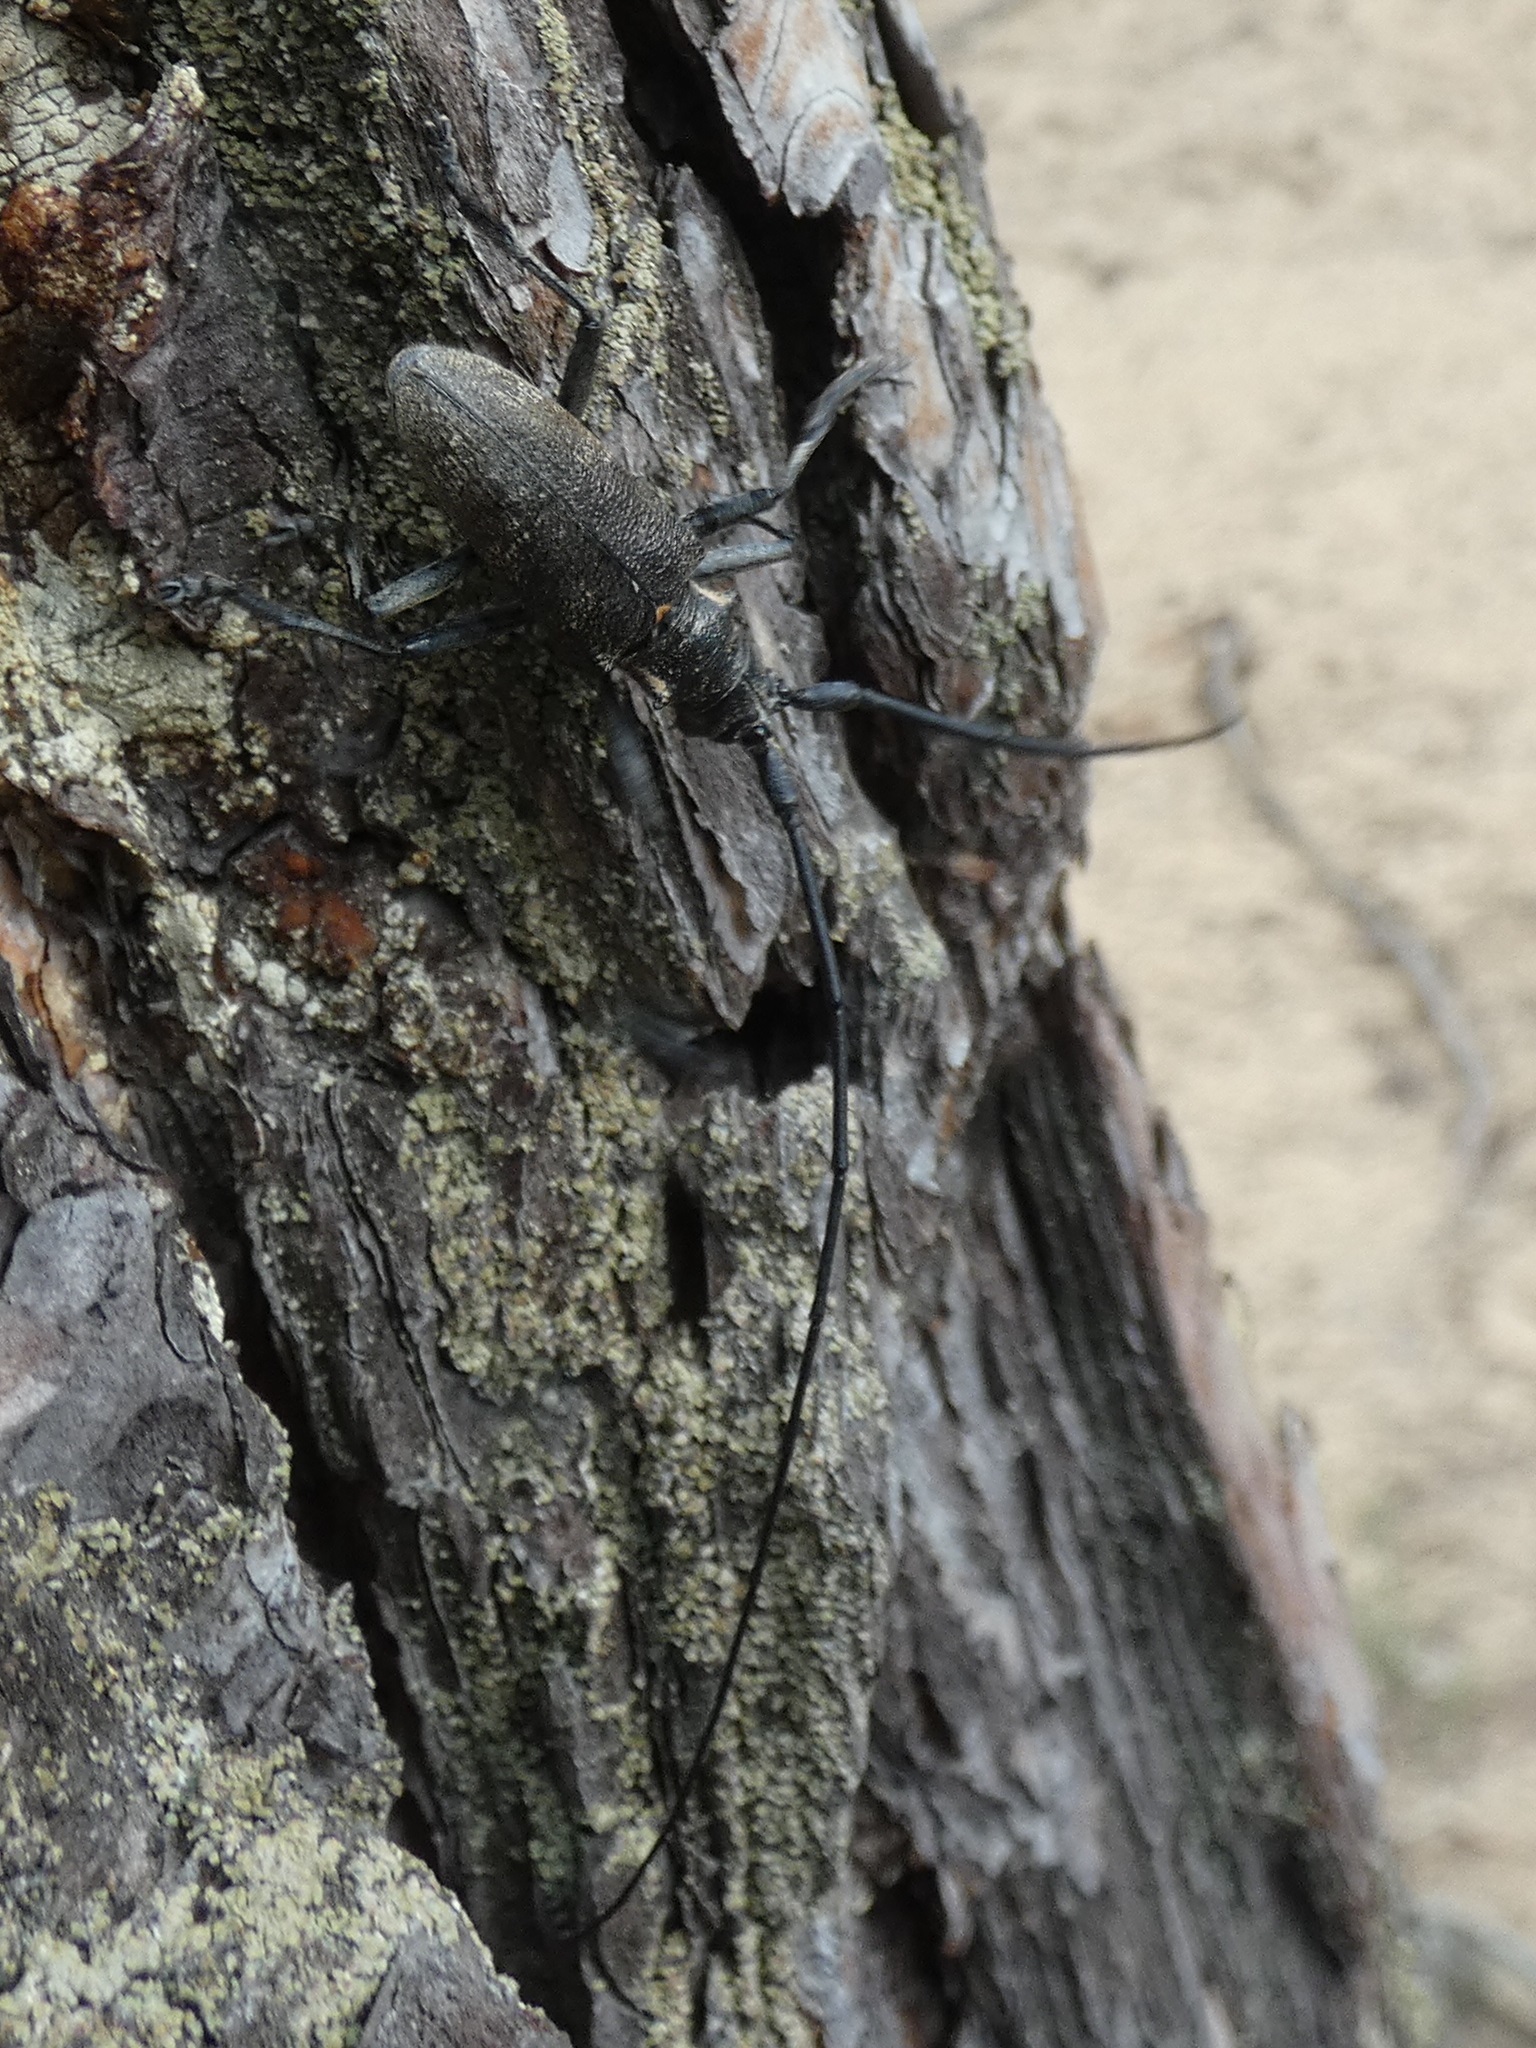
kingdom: Animalia
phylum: Arthropoda
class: Insecta
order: Coleoptera
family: Cerambycidae
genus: Monochamus
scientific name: Monochamus galloprovincialis
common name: Pine sawyer
